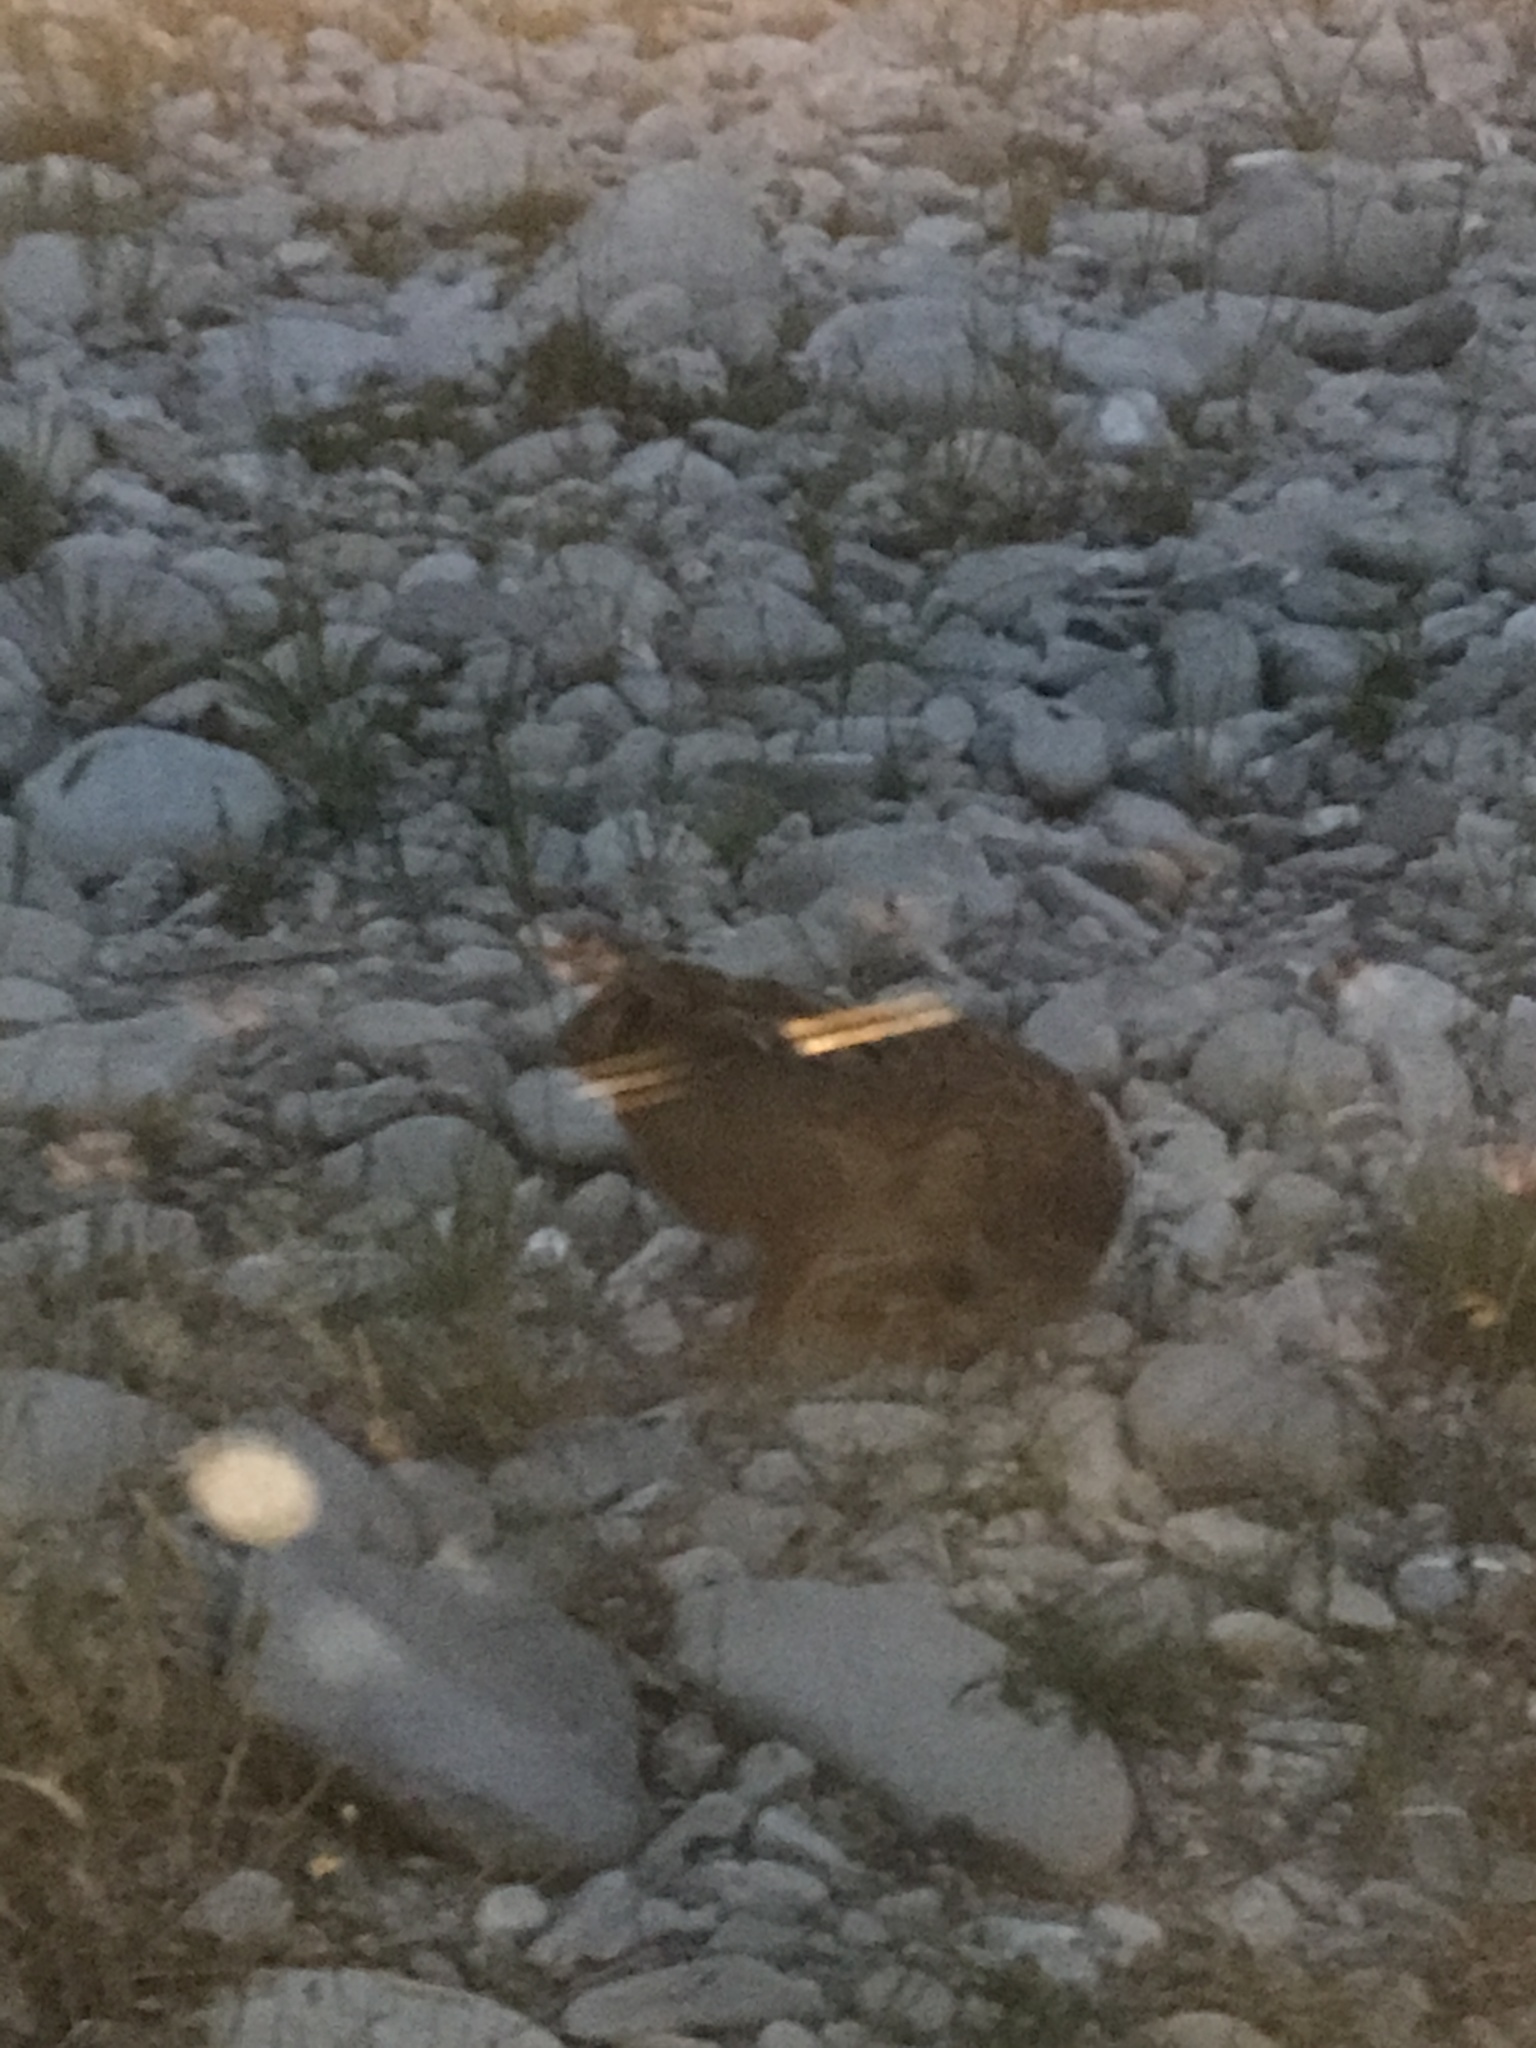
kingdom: Animalia
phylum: Chordata
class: Mammalia
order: Lagomorpha
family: Leporidae
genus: Lepus
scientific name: Lepus europaeus
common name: European hare
